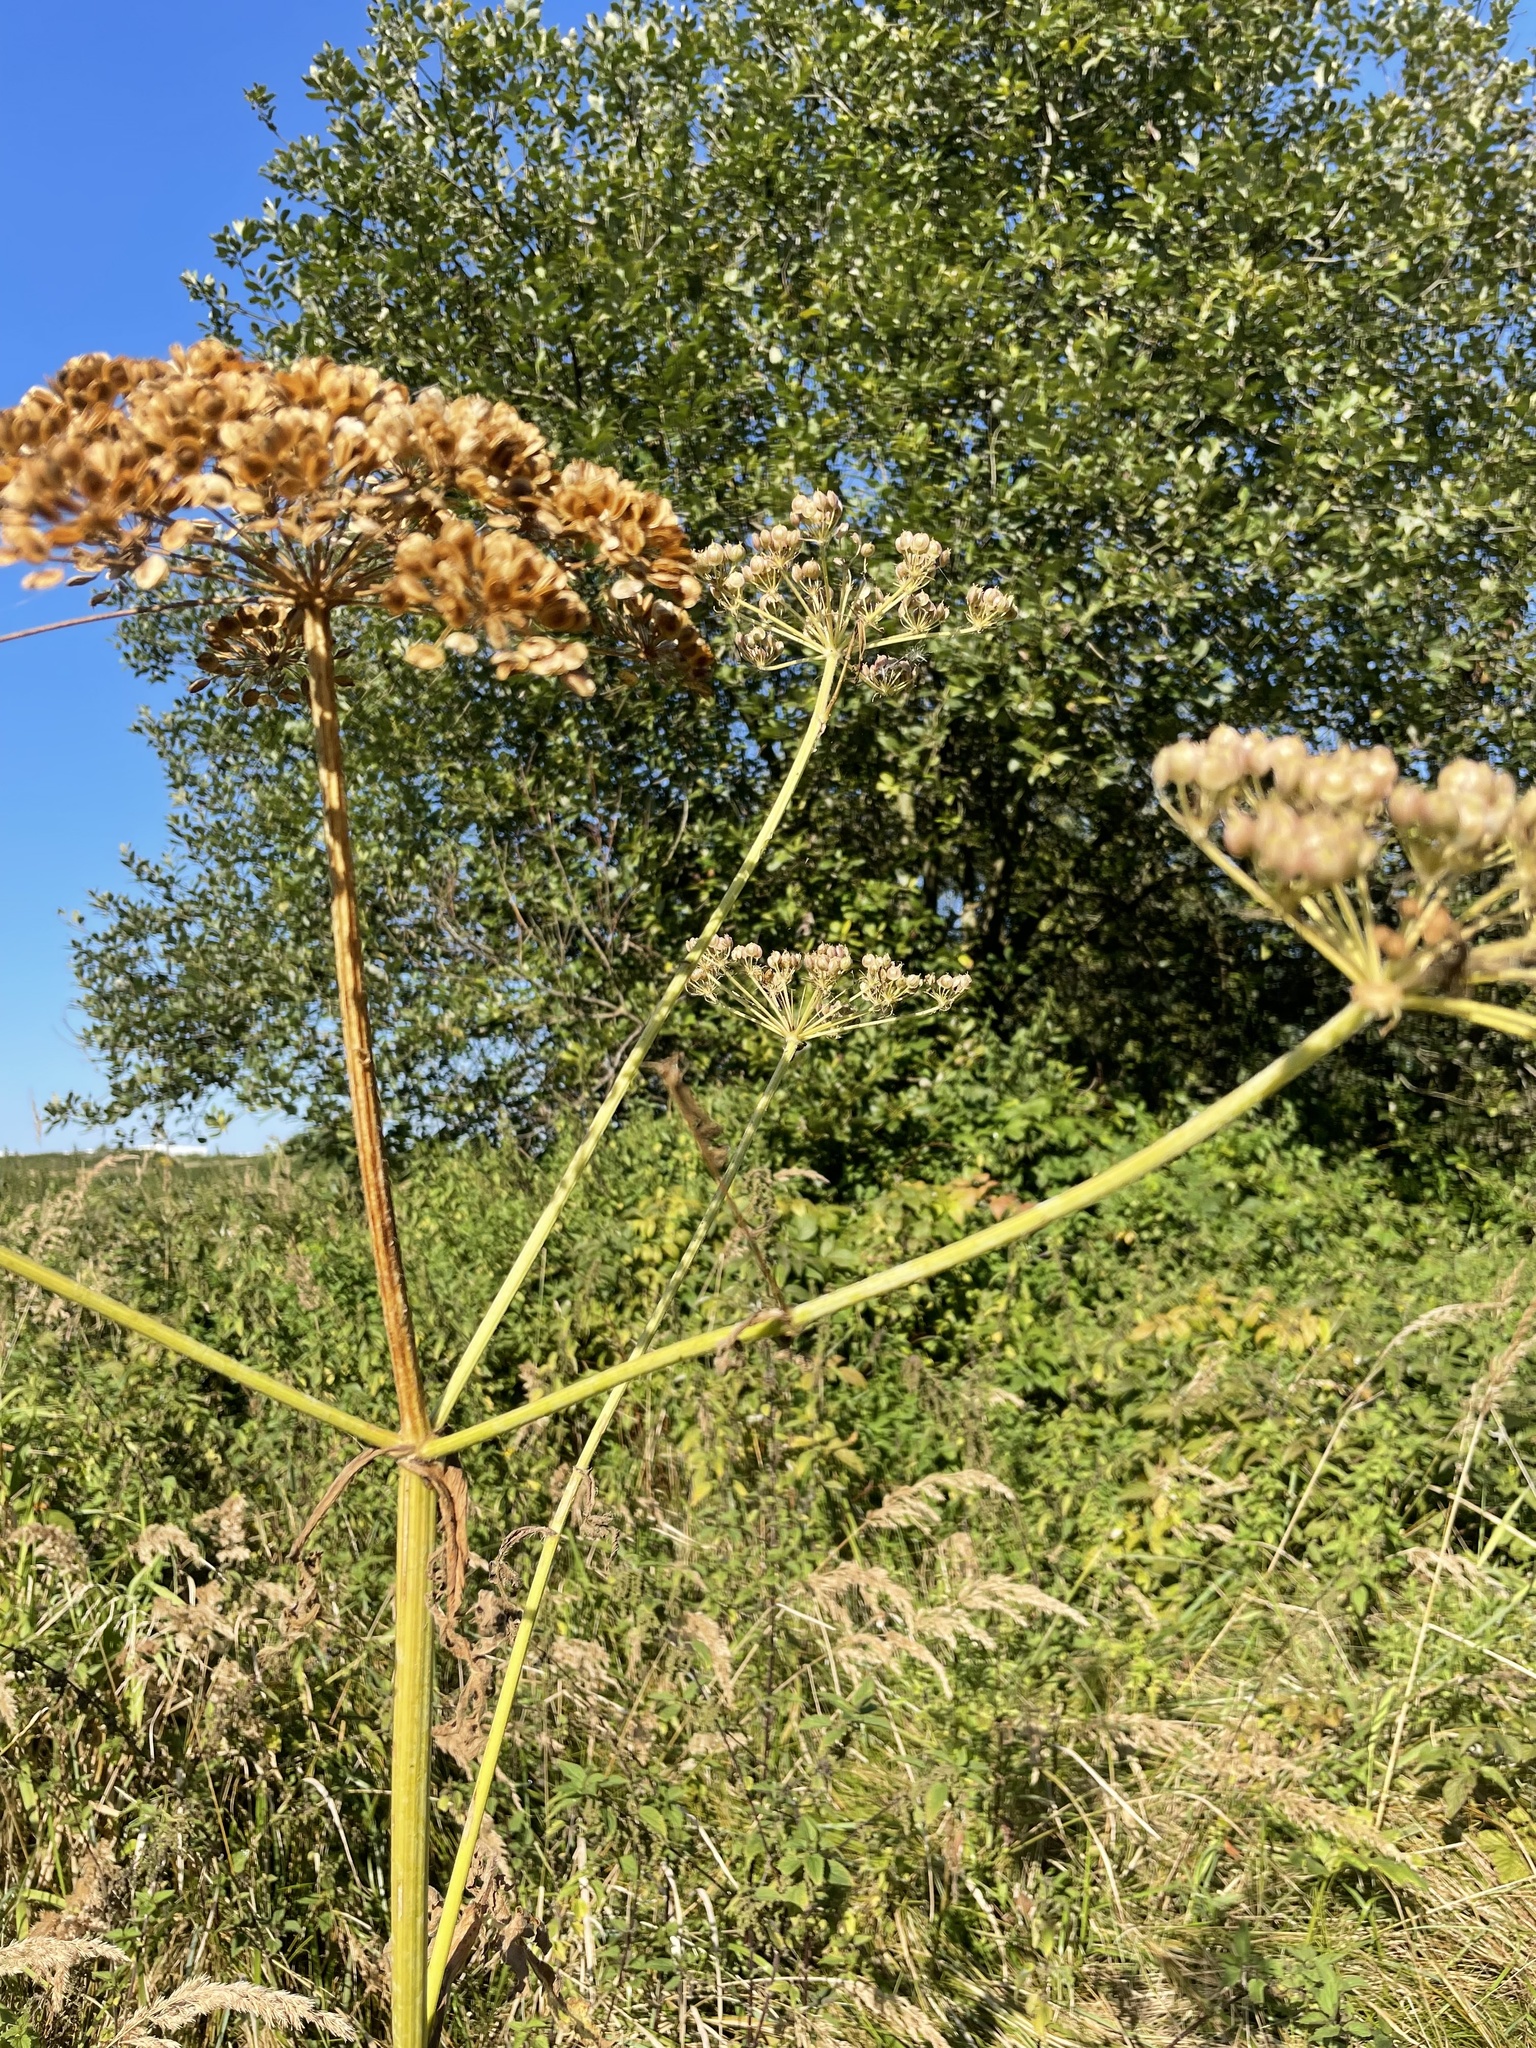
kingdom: Plantae
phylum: Tracheophyta
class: Magnoliopsida
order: Apiales
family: Apiaceae
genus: Heracleum
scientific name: Heracleum sphondylium
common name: Hogweed
